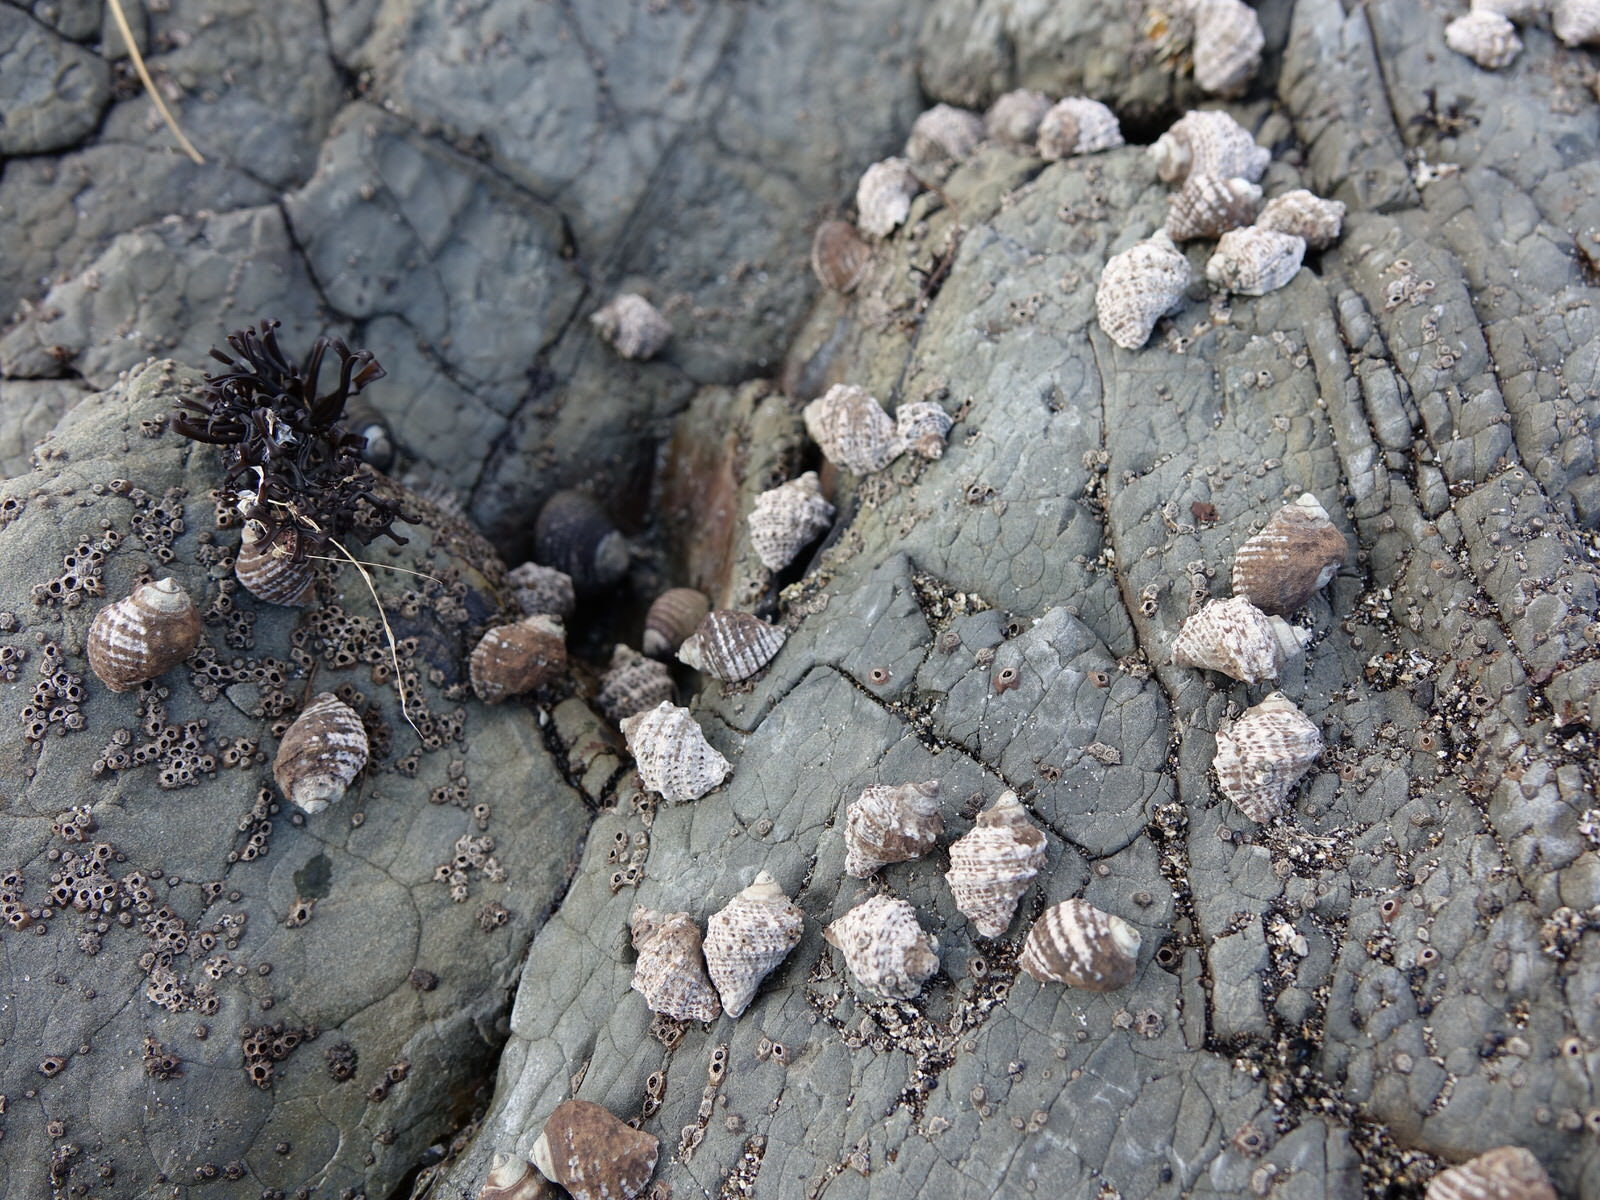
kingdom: Animalia
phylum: Mollusca
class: Gastropoda
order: Neogastropoda
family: Muricidae
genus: Haustrum
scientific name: Haustrum albomarginatum
